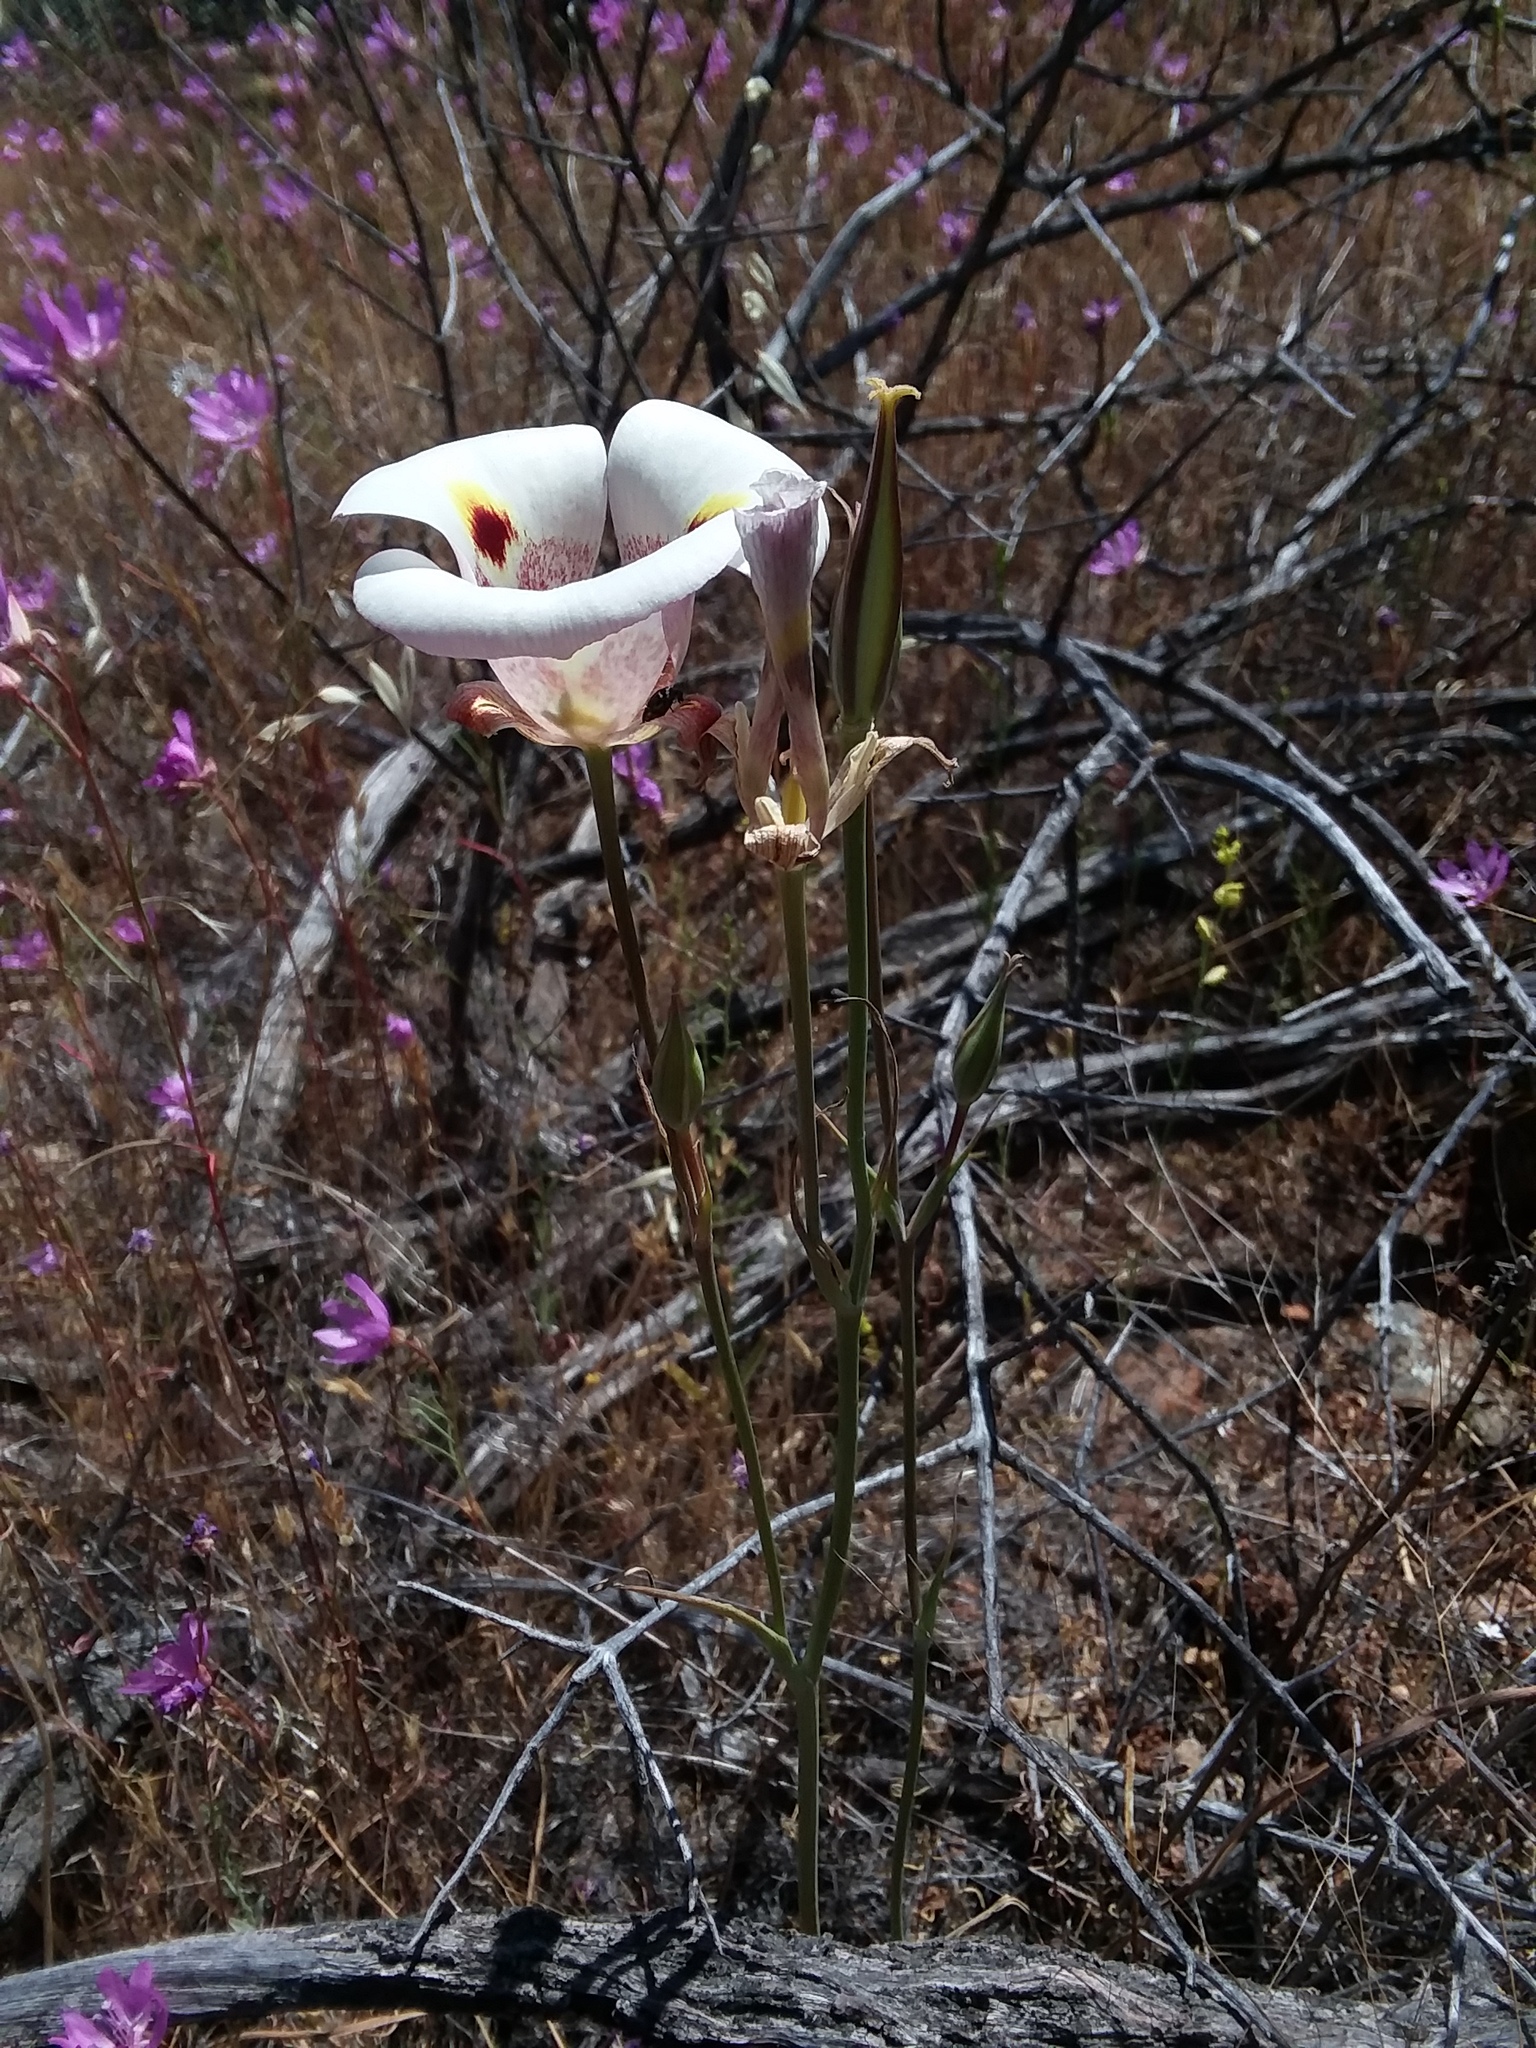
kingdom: Plantae
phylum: Tracheophyta
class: Liliopsida
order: Liliales
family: Liliaceae
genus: Calochortus
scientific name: Calochortus superbus
